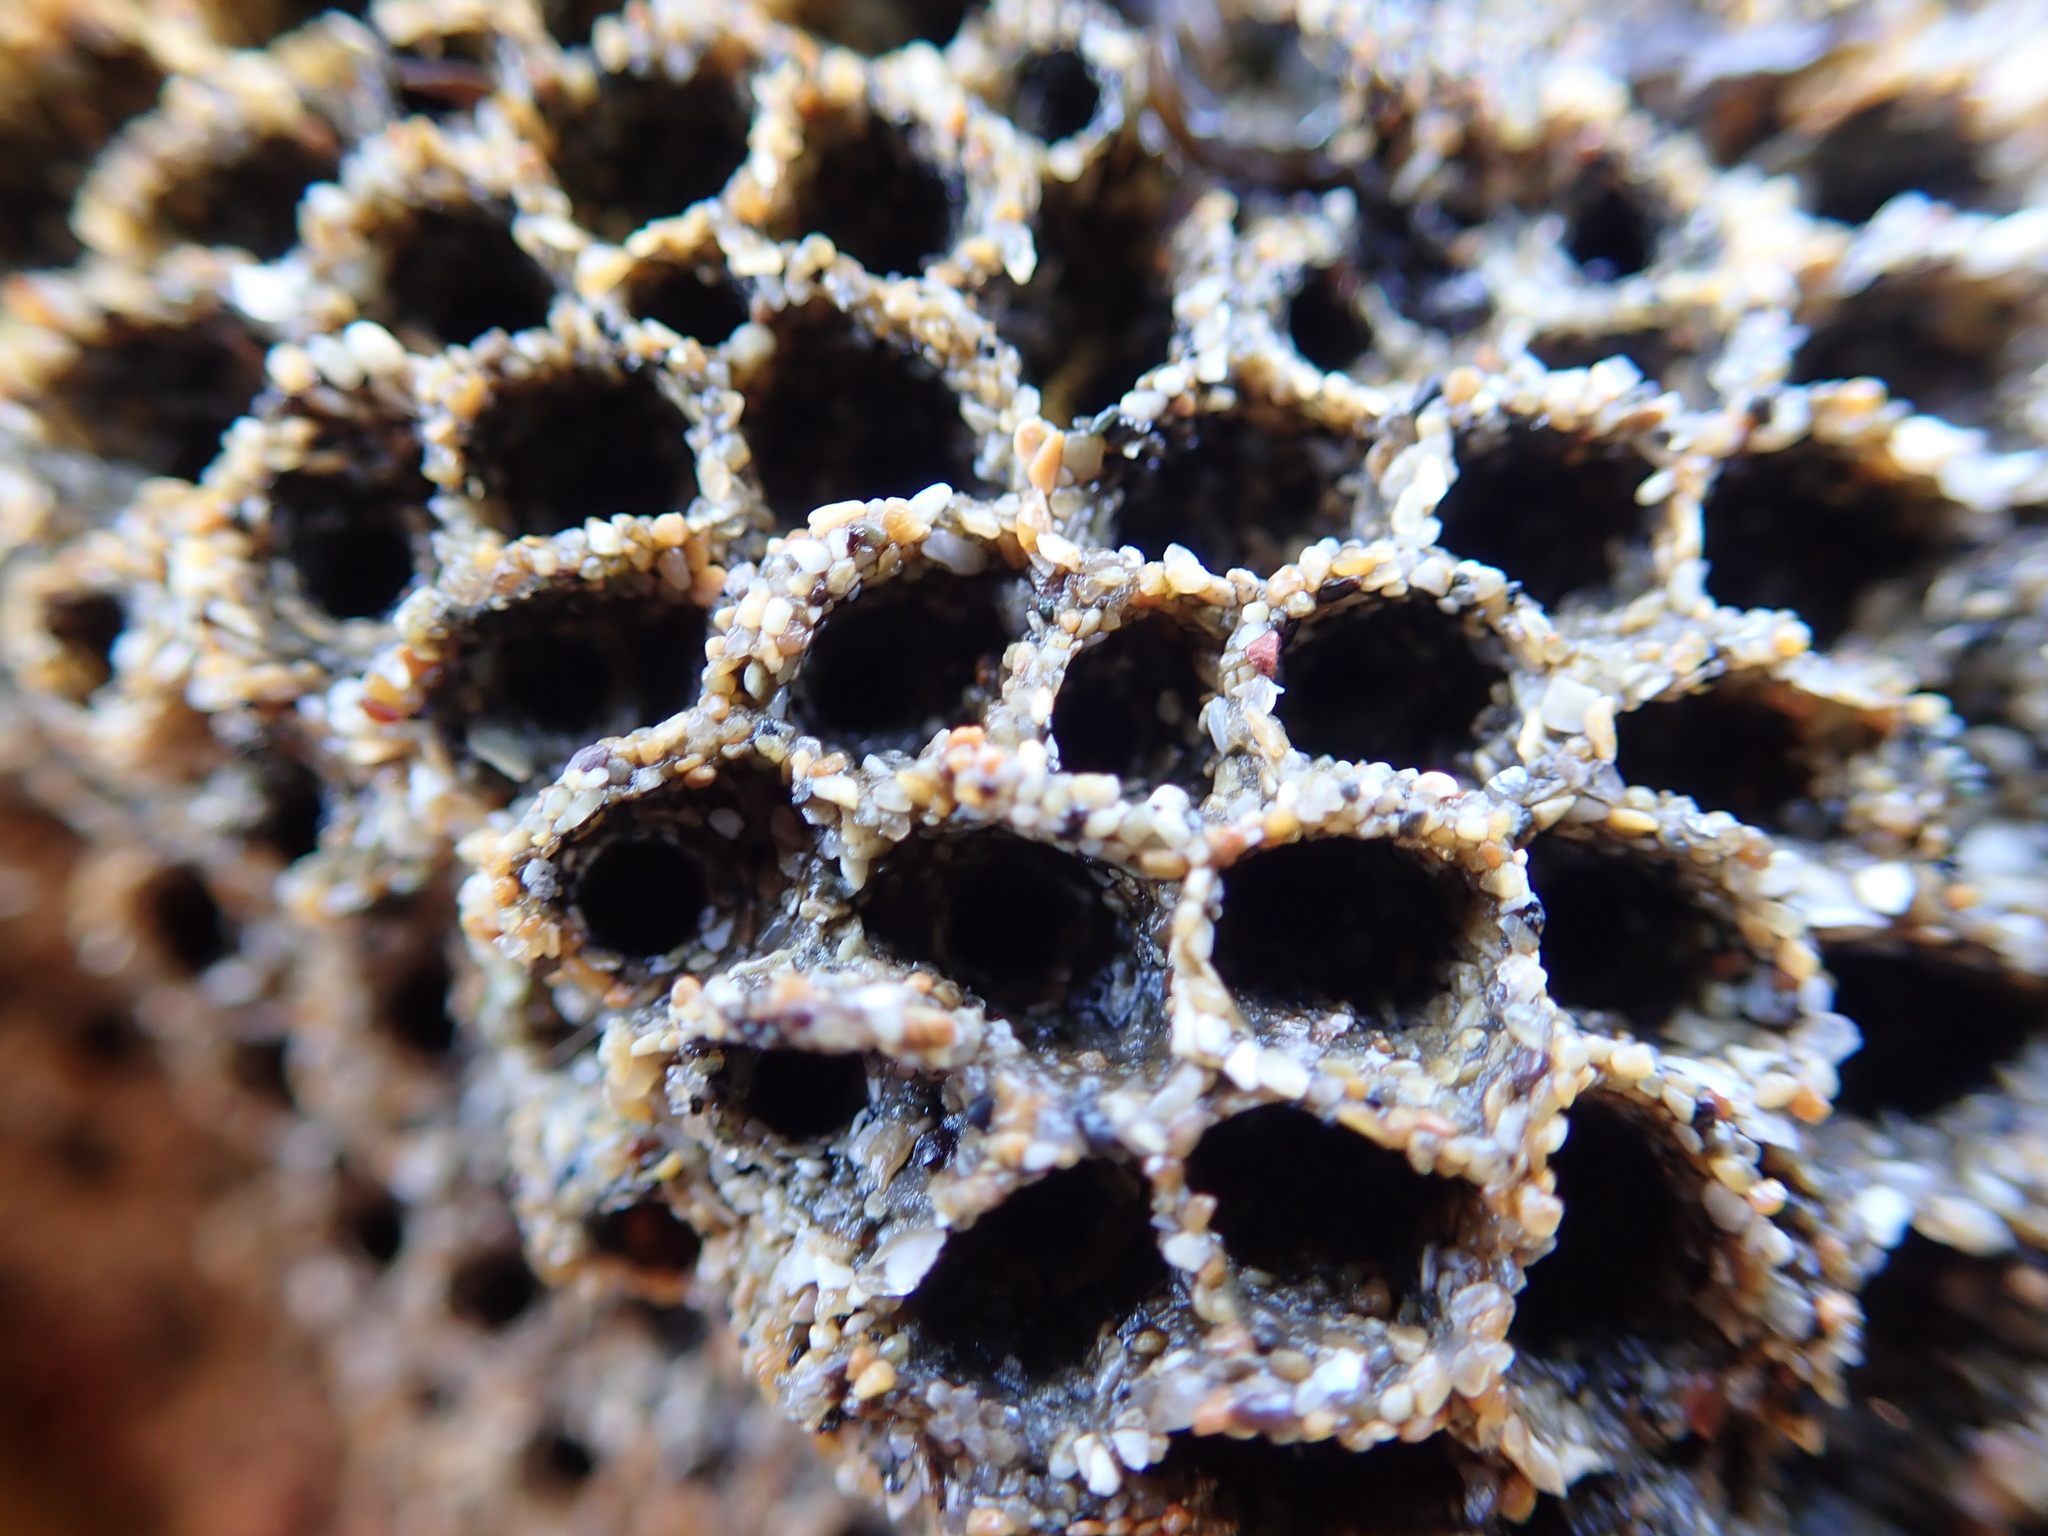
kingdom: Animalia
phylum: Annelida
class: Polychaeta
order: Sabellida
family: Sabellariidae
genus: Phragmatopoma
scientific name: Phragmatopoma californica
